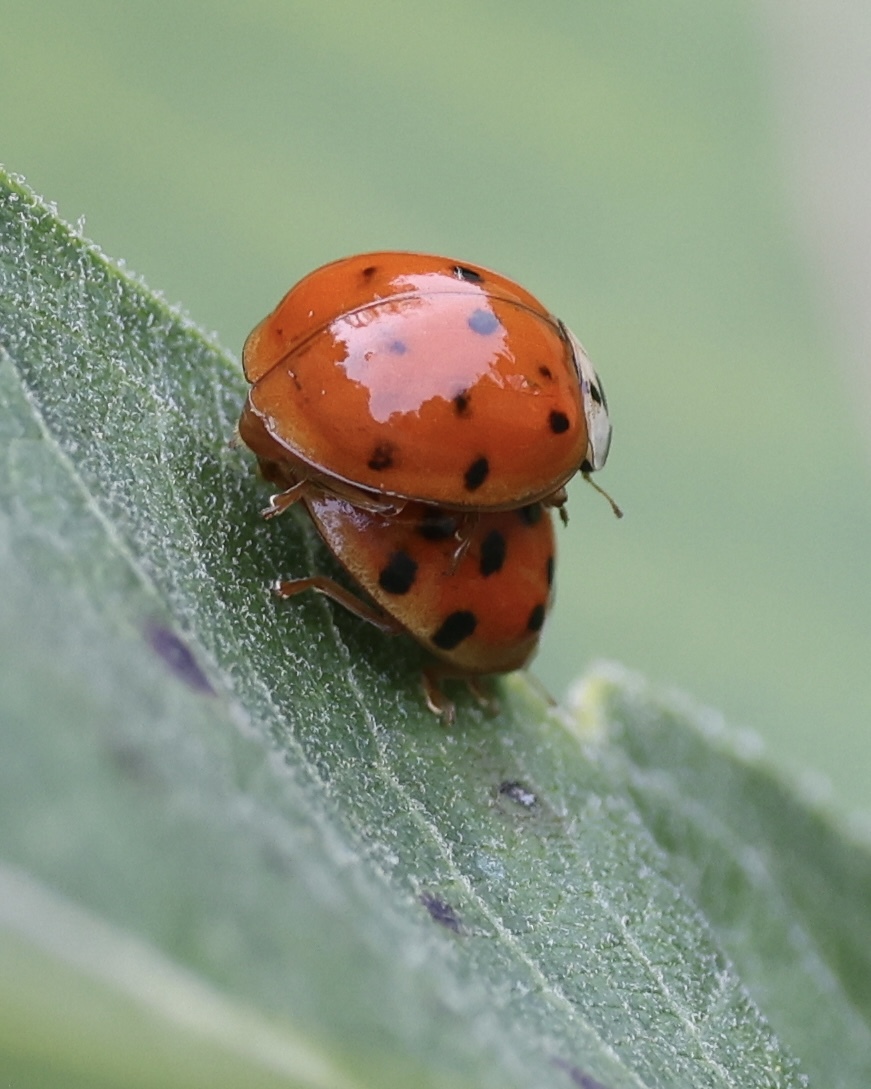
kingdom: Animalia
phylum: Arthropoda
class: Insecta
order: Coleoptera
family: Coccinellidae
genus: Harmonia
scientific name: Harmonia axyridis
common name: Harlequin ladybird
